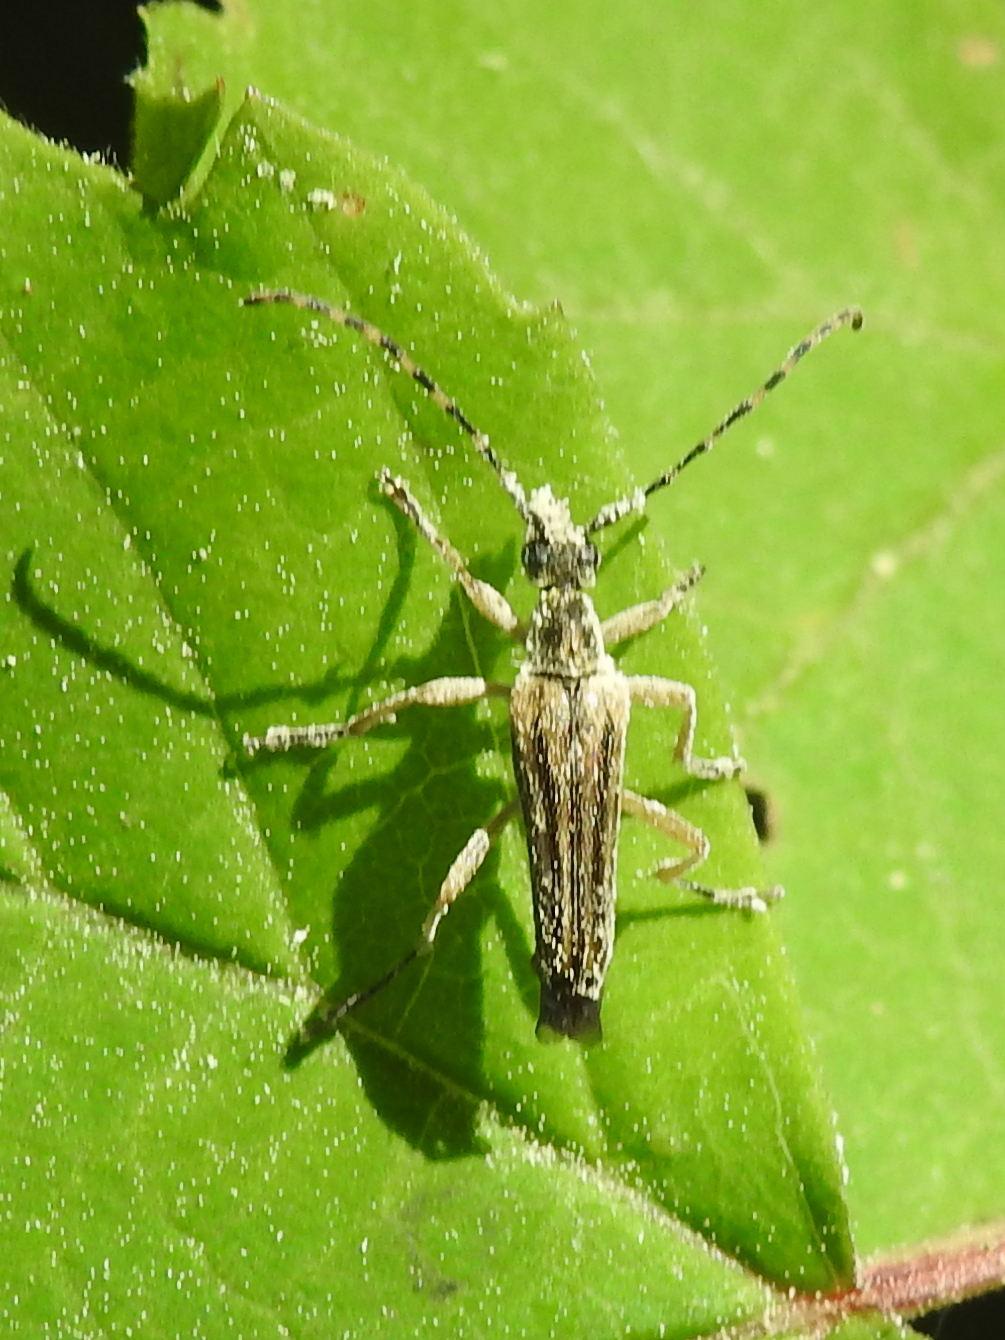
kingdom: Animalia
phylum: Arthropoda
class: Insecta
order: Coleoptera
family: Cerambycidae
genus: Analeptura
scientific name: Analeptura lineola
